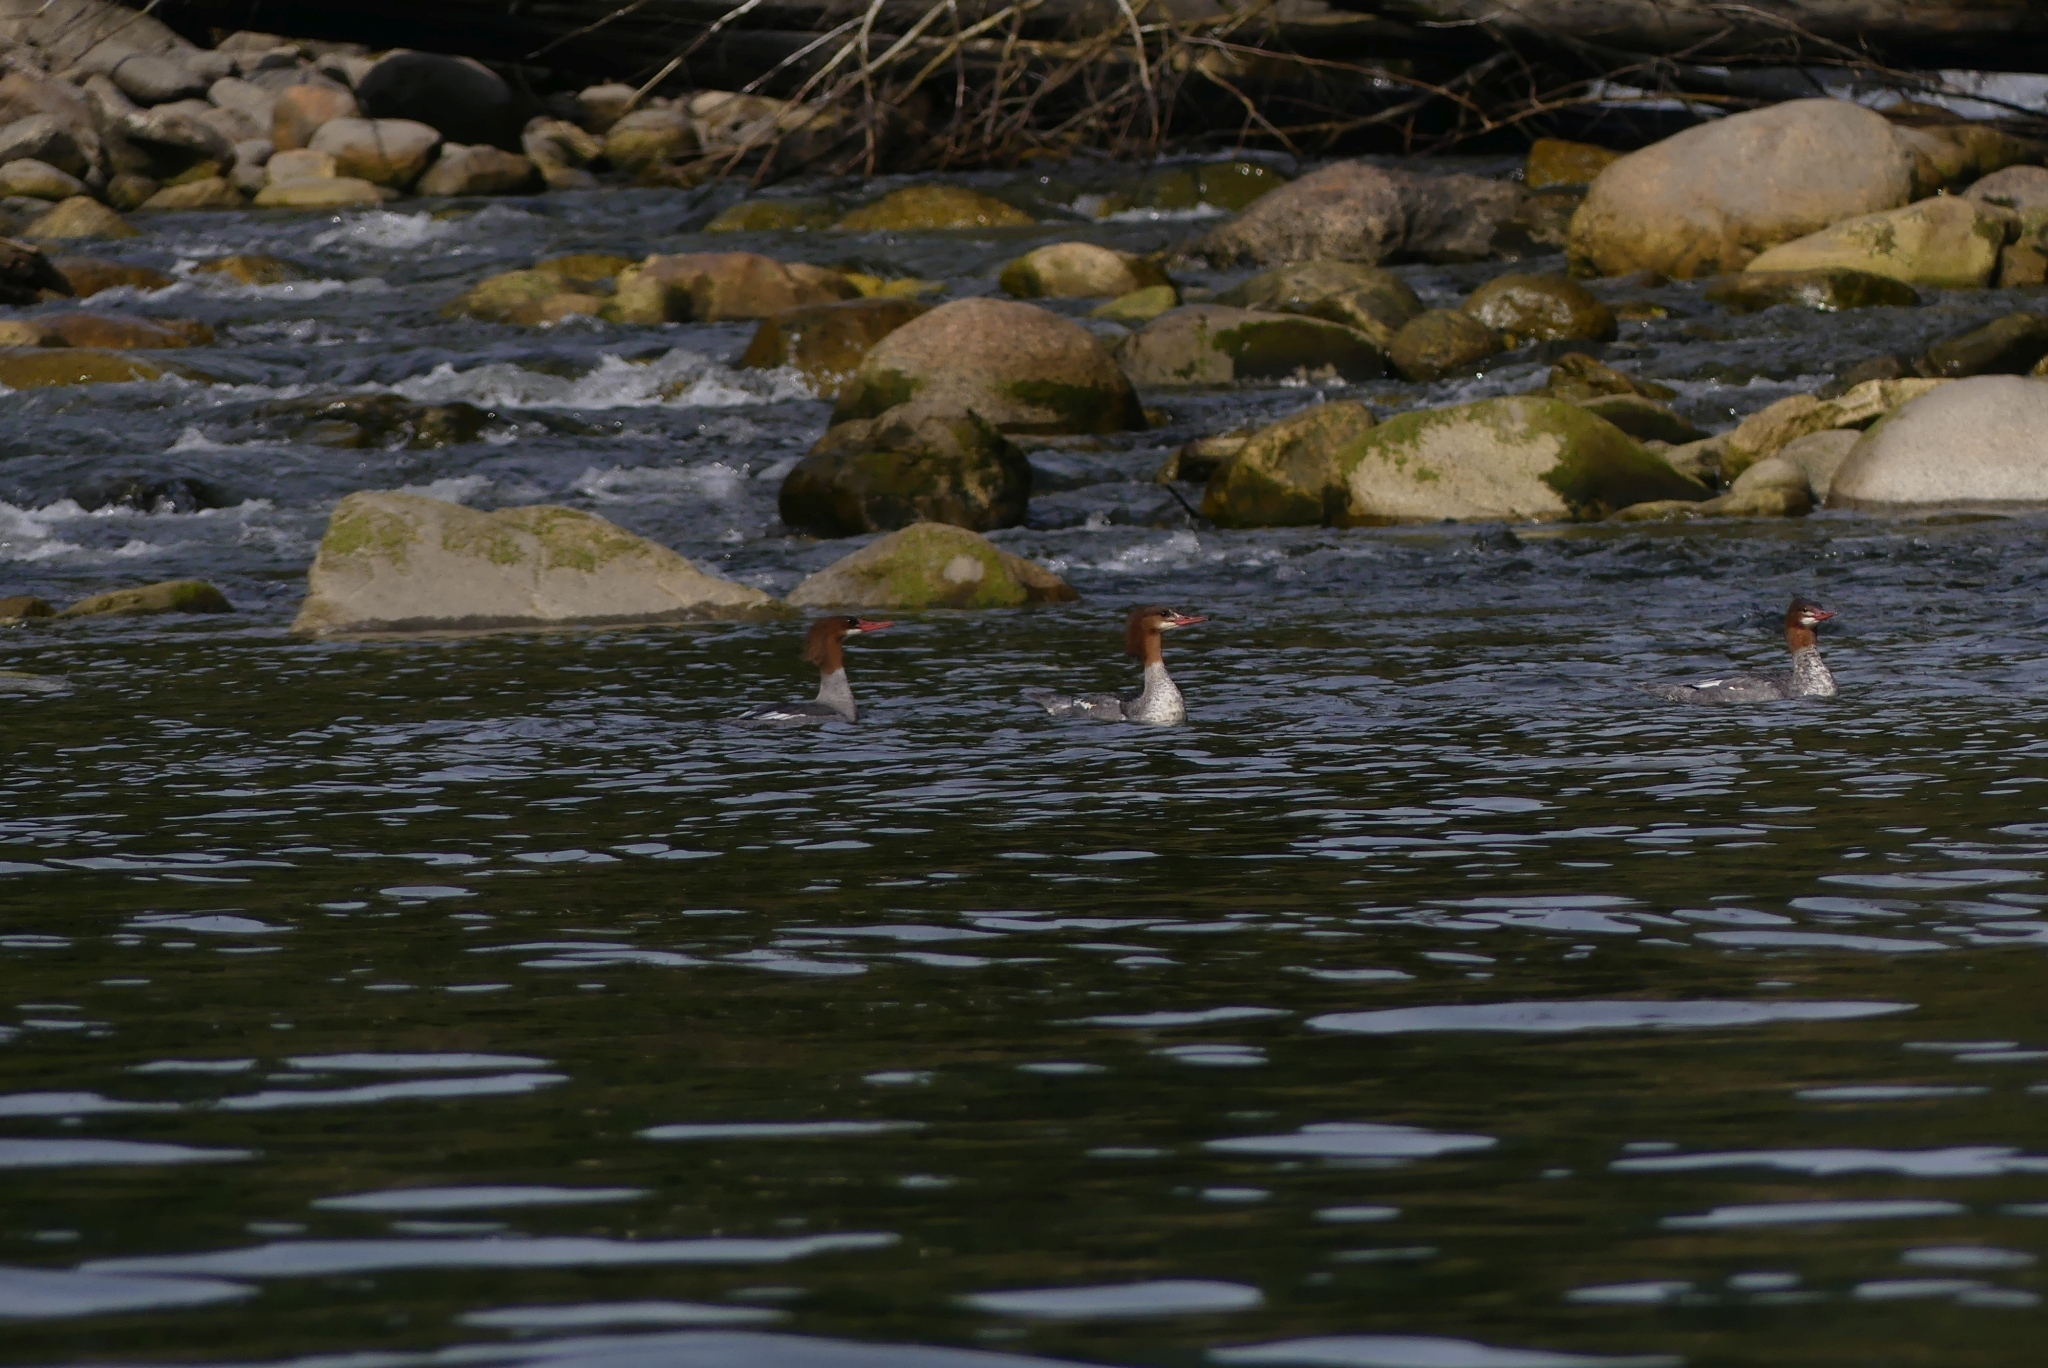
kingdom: Animalia
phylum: Chordata
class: Aves
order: Anseriformes
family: Anatidae
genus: Mergus
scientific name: Mergus merganser
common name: Common merganser
